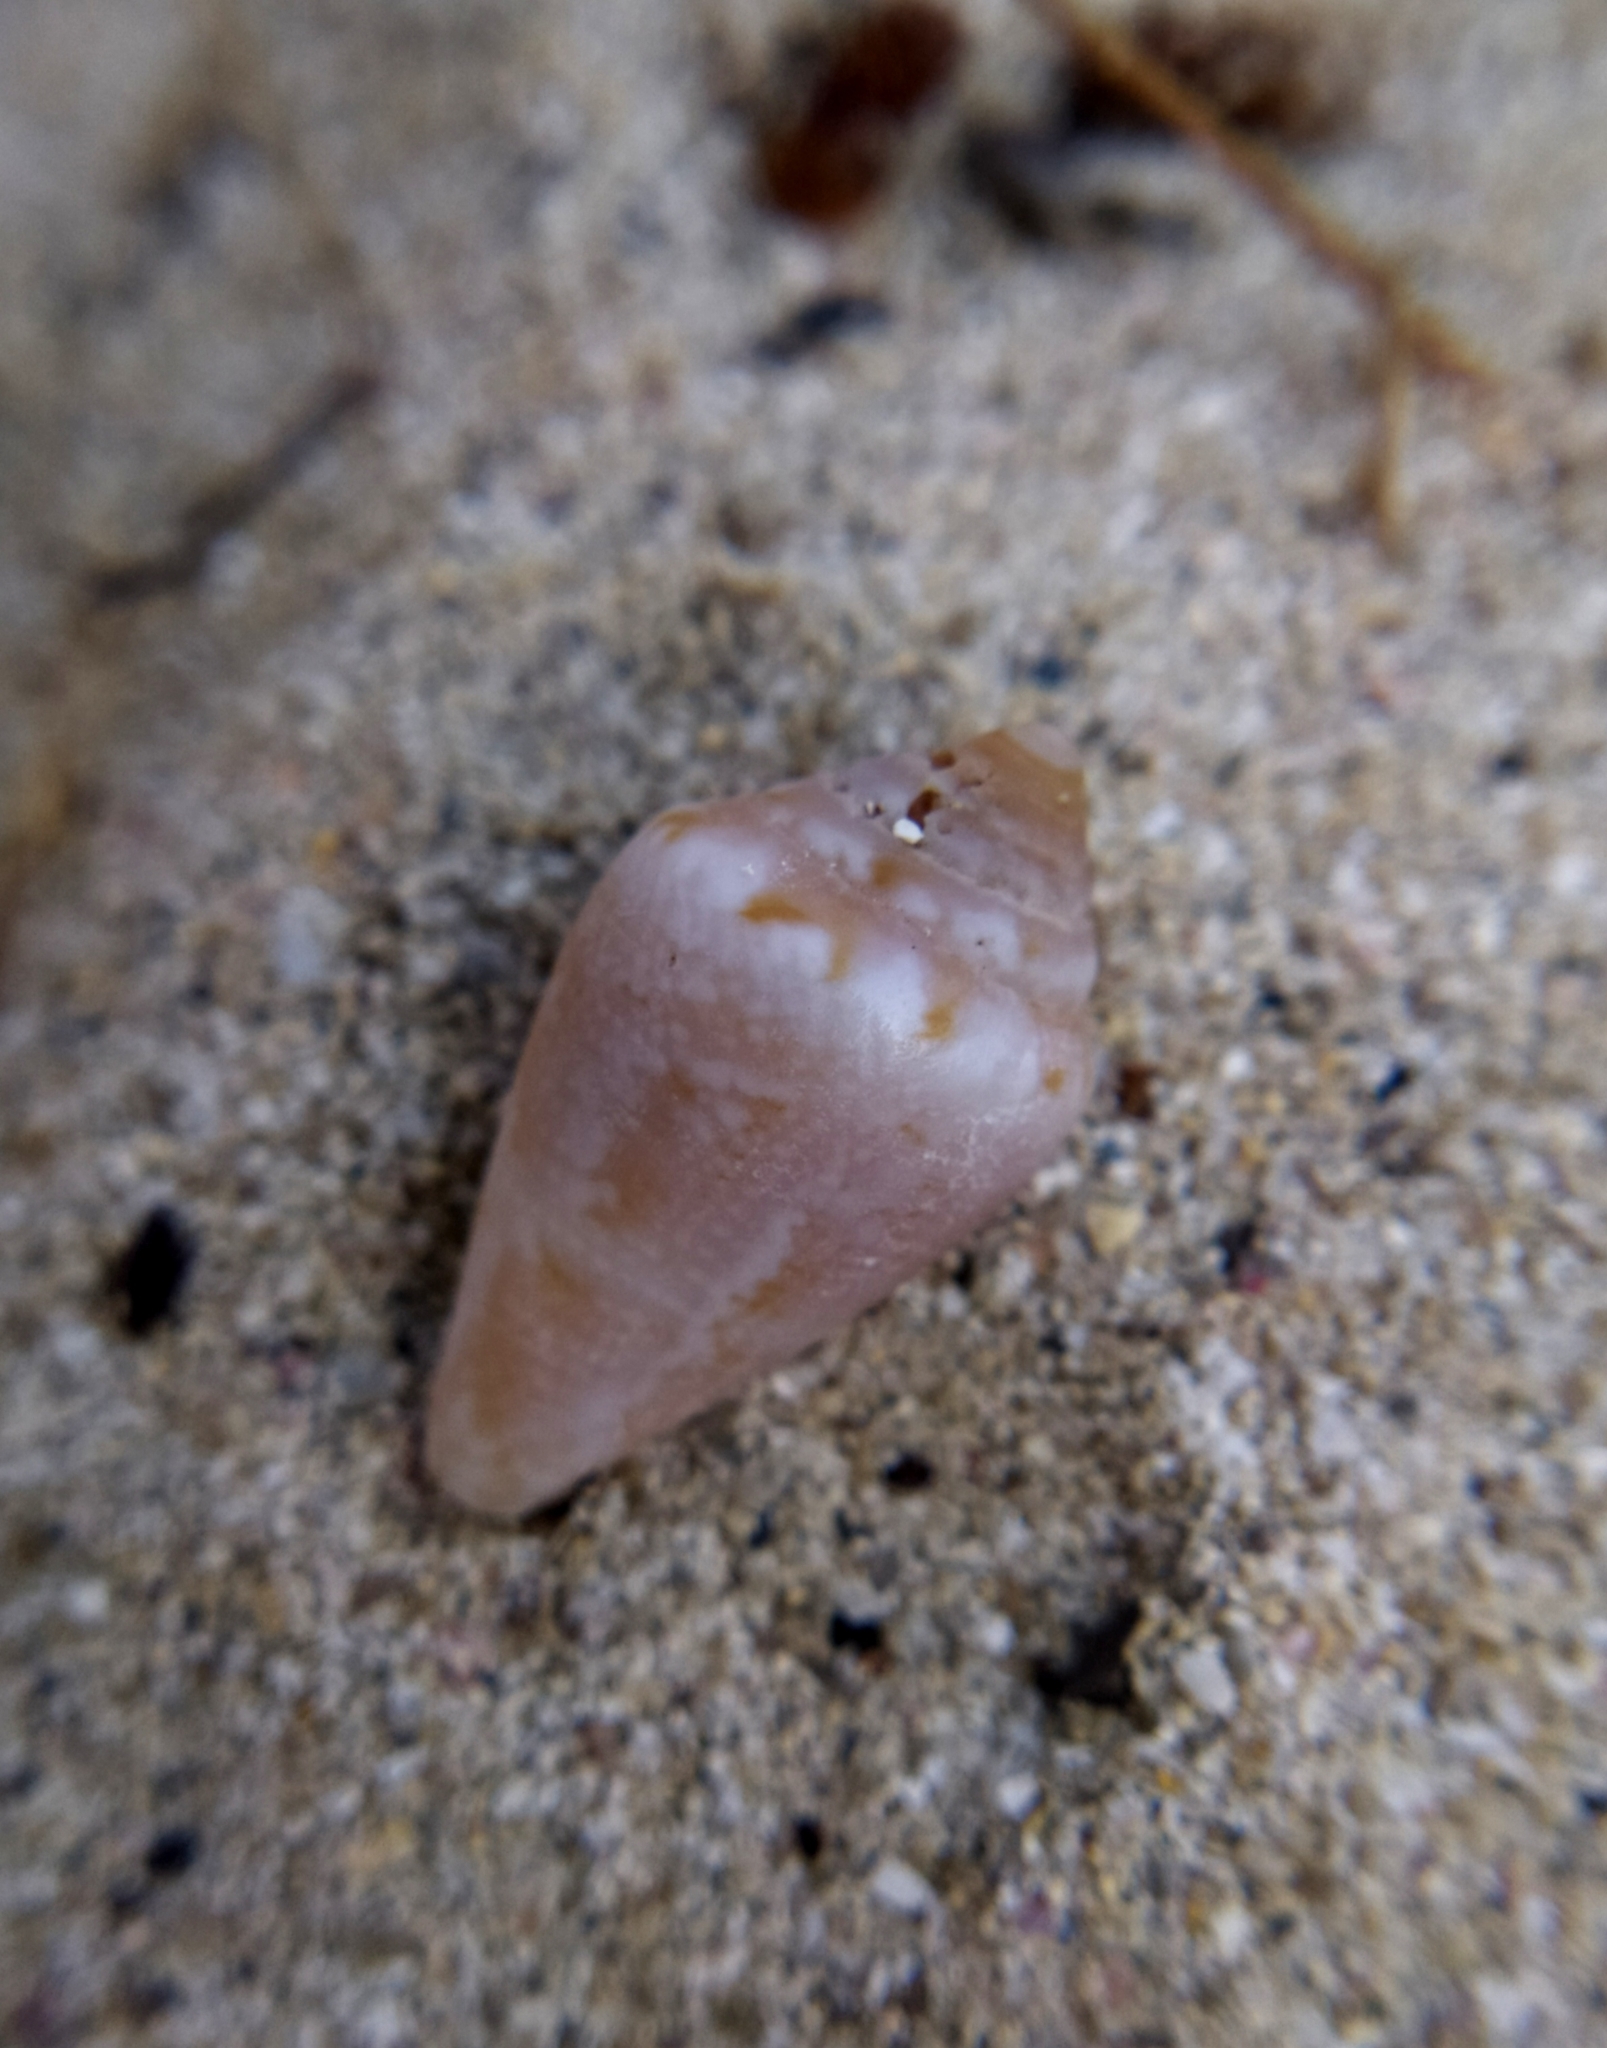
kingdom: Animalia
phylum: Mollusca
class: Gastropoda
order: Neogastropoda
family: Conidae
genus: Conus
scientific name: Conus ventricosus
